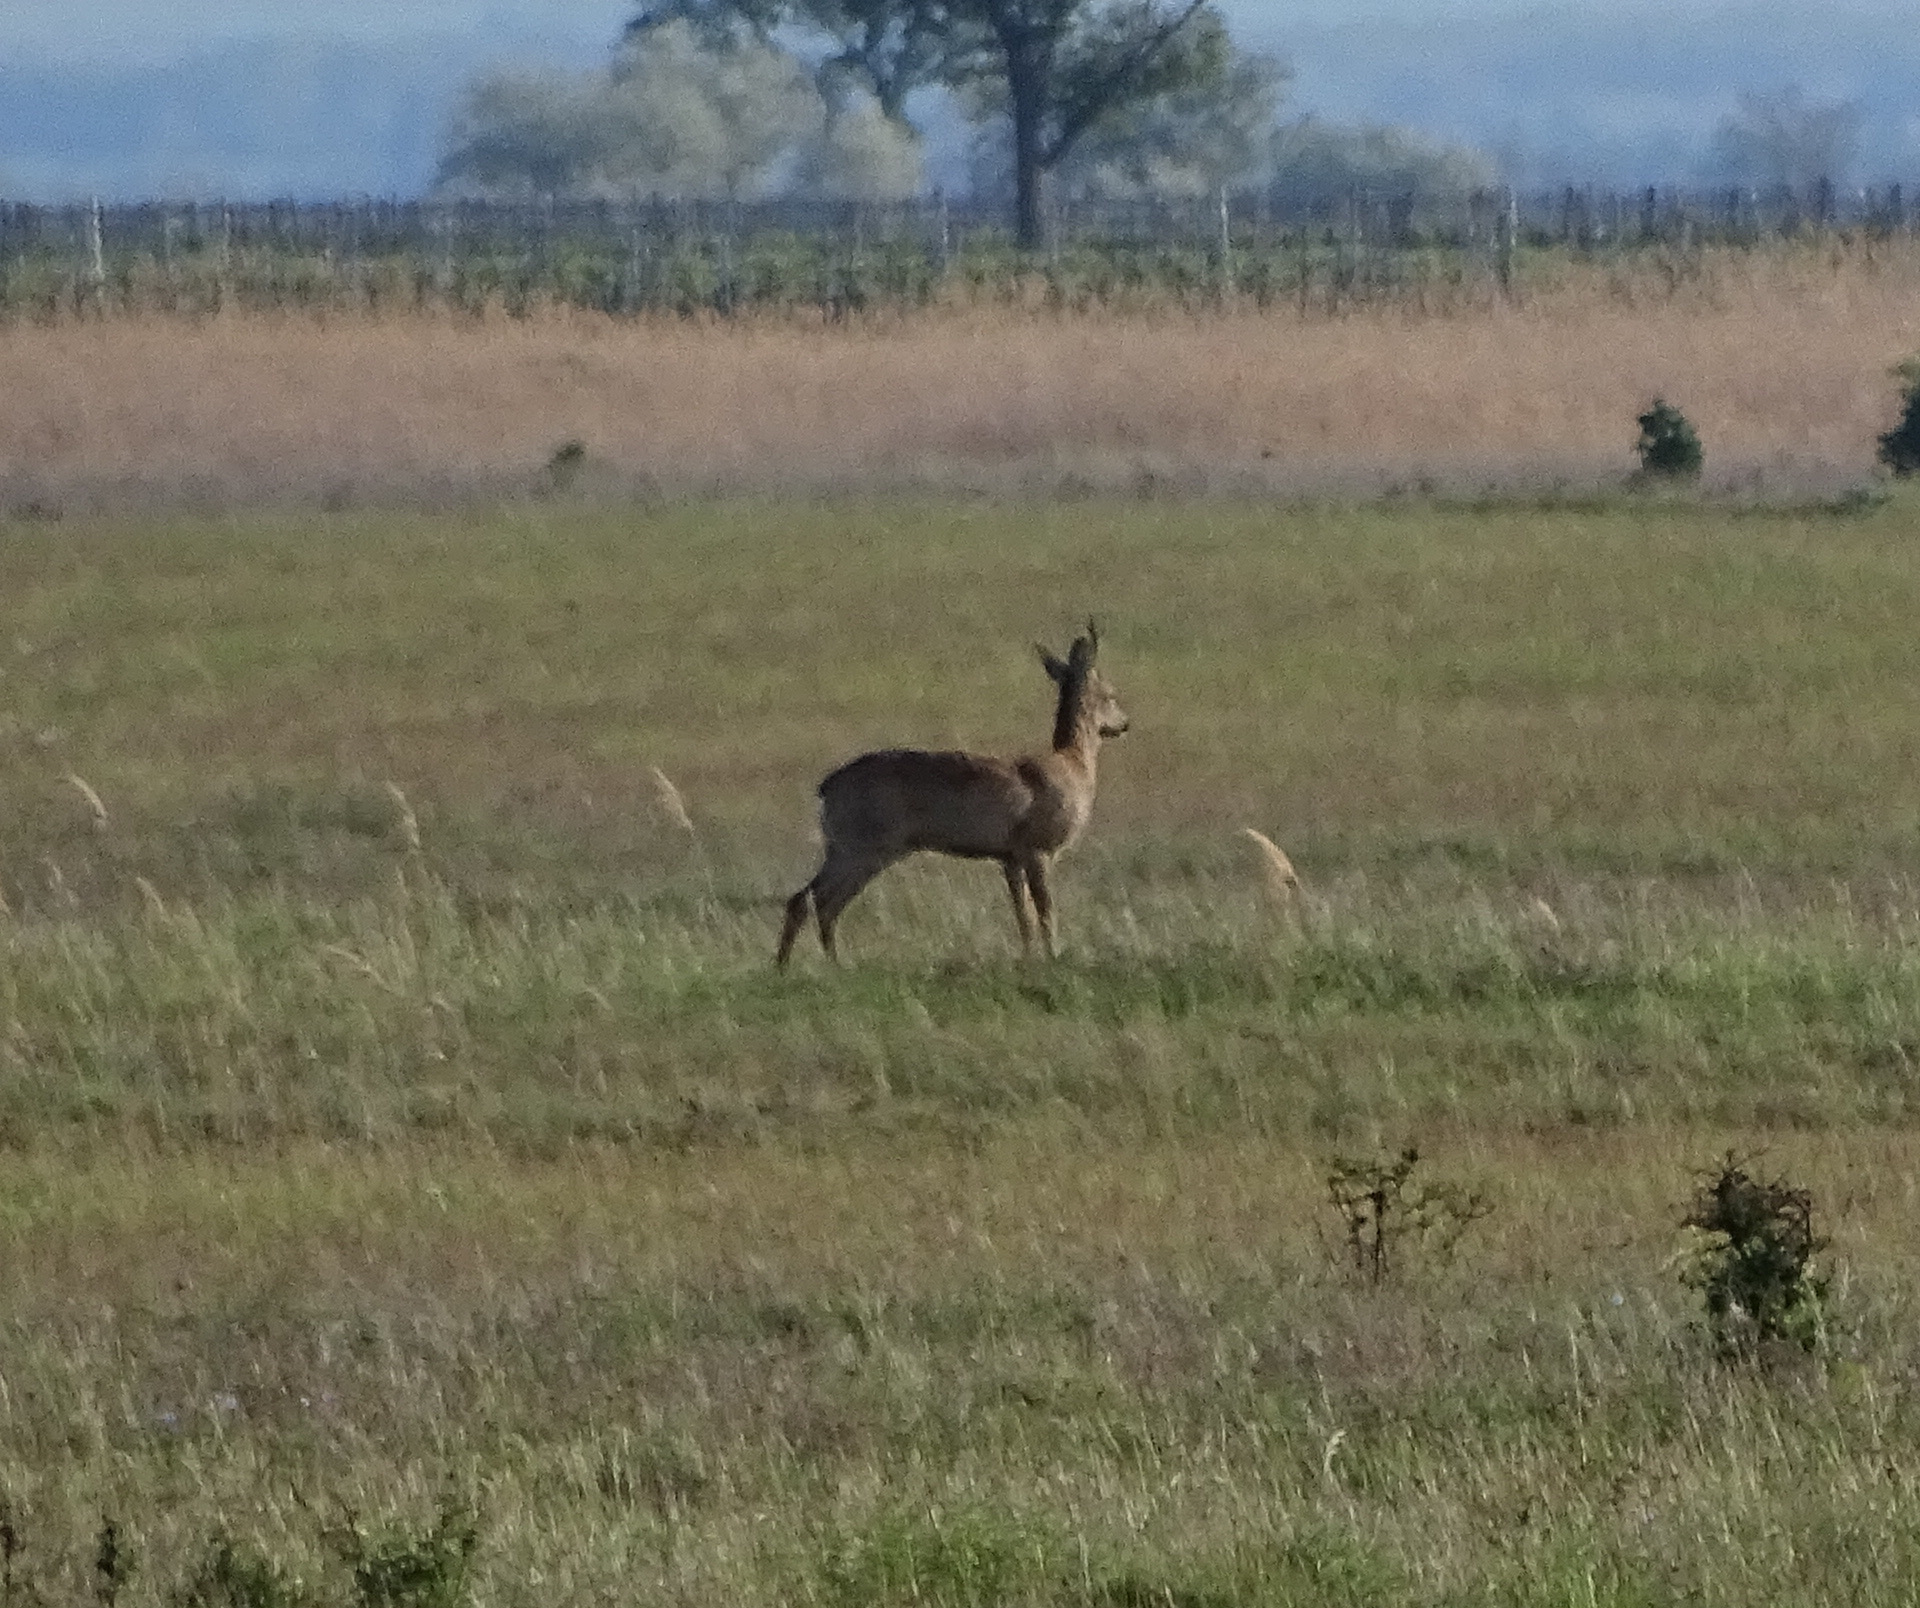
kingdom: Animalia
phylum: Chordata
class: Mammalia
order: Artiodactyla
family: Cervidae
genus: Capreolus
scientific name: Capreolus capreolus
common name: Western roe deer
